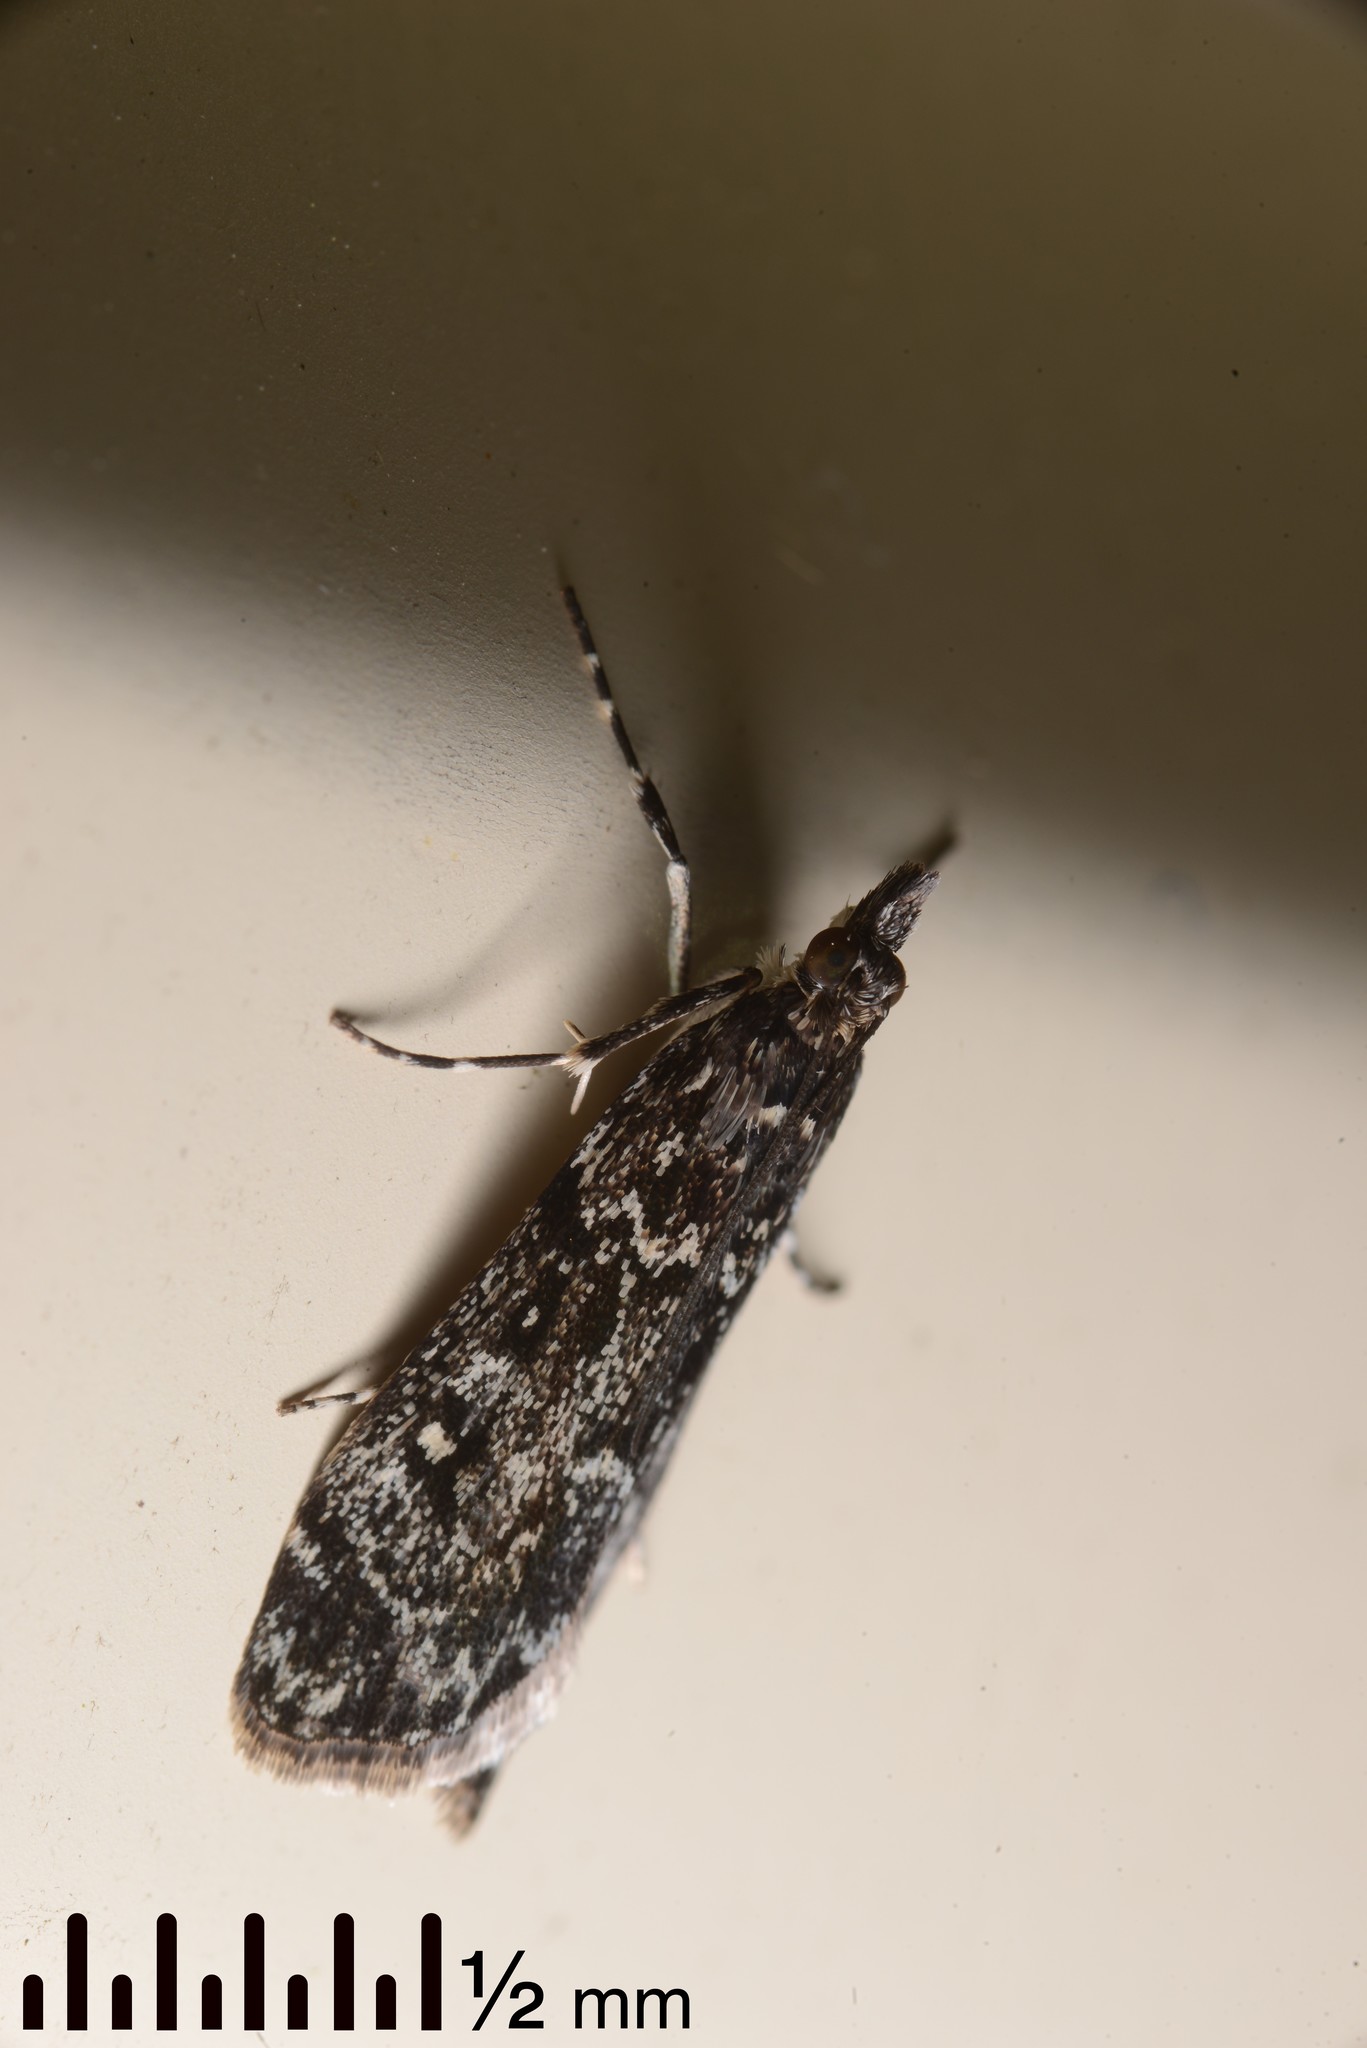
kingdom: Animalia
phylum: Arthropoda
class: Insecta
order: Lepidoptera
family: Crambidae
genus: Eudonia
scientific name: Eudonia philerga
